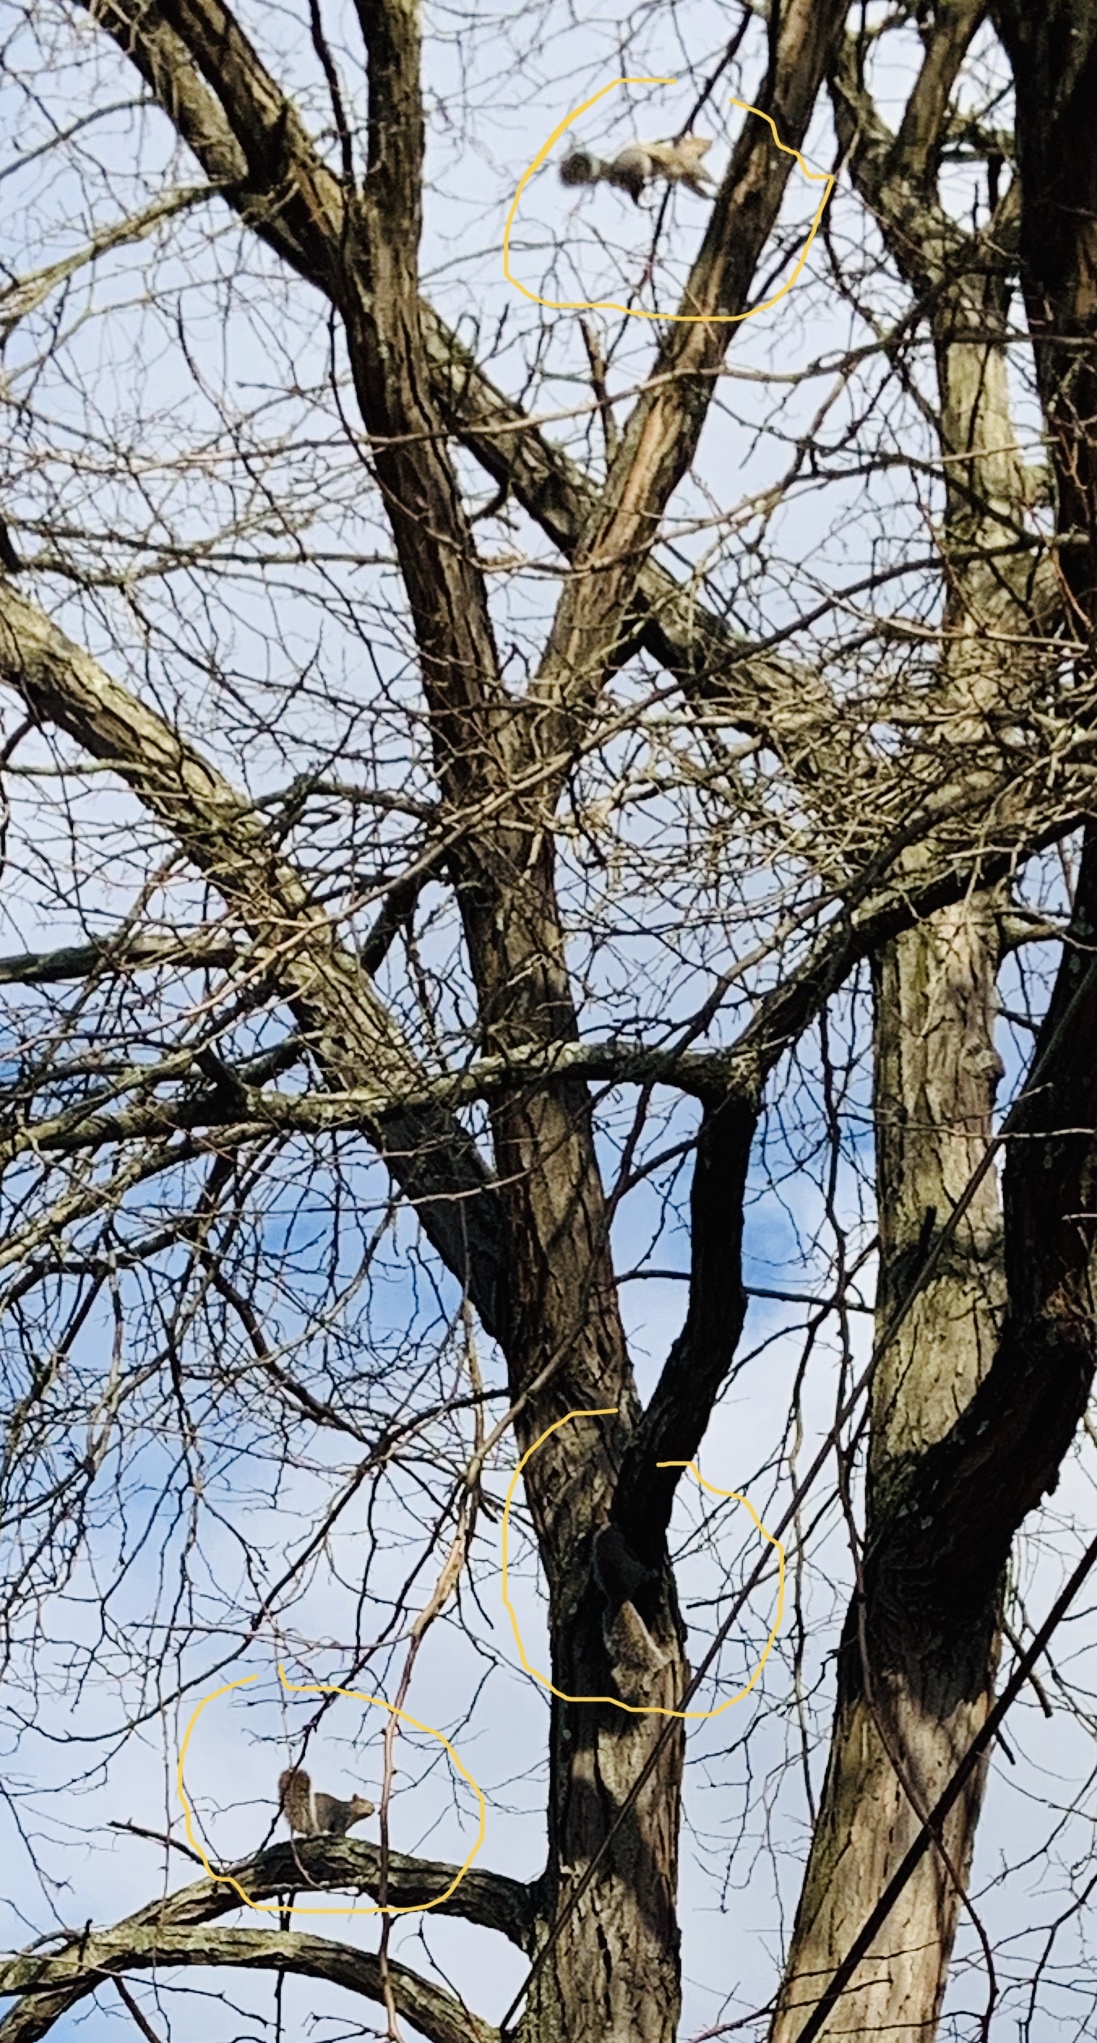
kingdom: Animalia
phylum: Chordata
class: Mammalia
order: Rodentia
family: Sciuridae
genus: Sciurus
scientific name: Sciurus carolinensis
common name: Eastern gray squirrel
